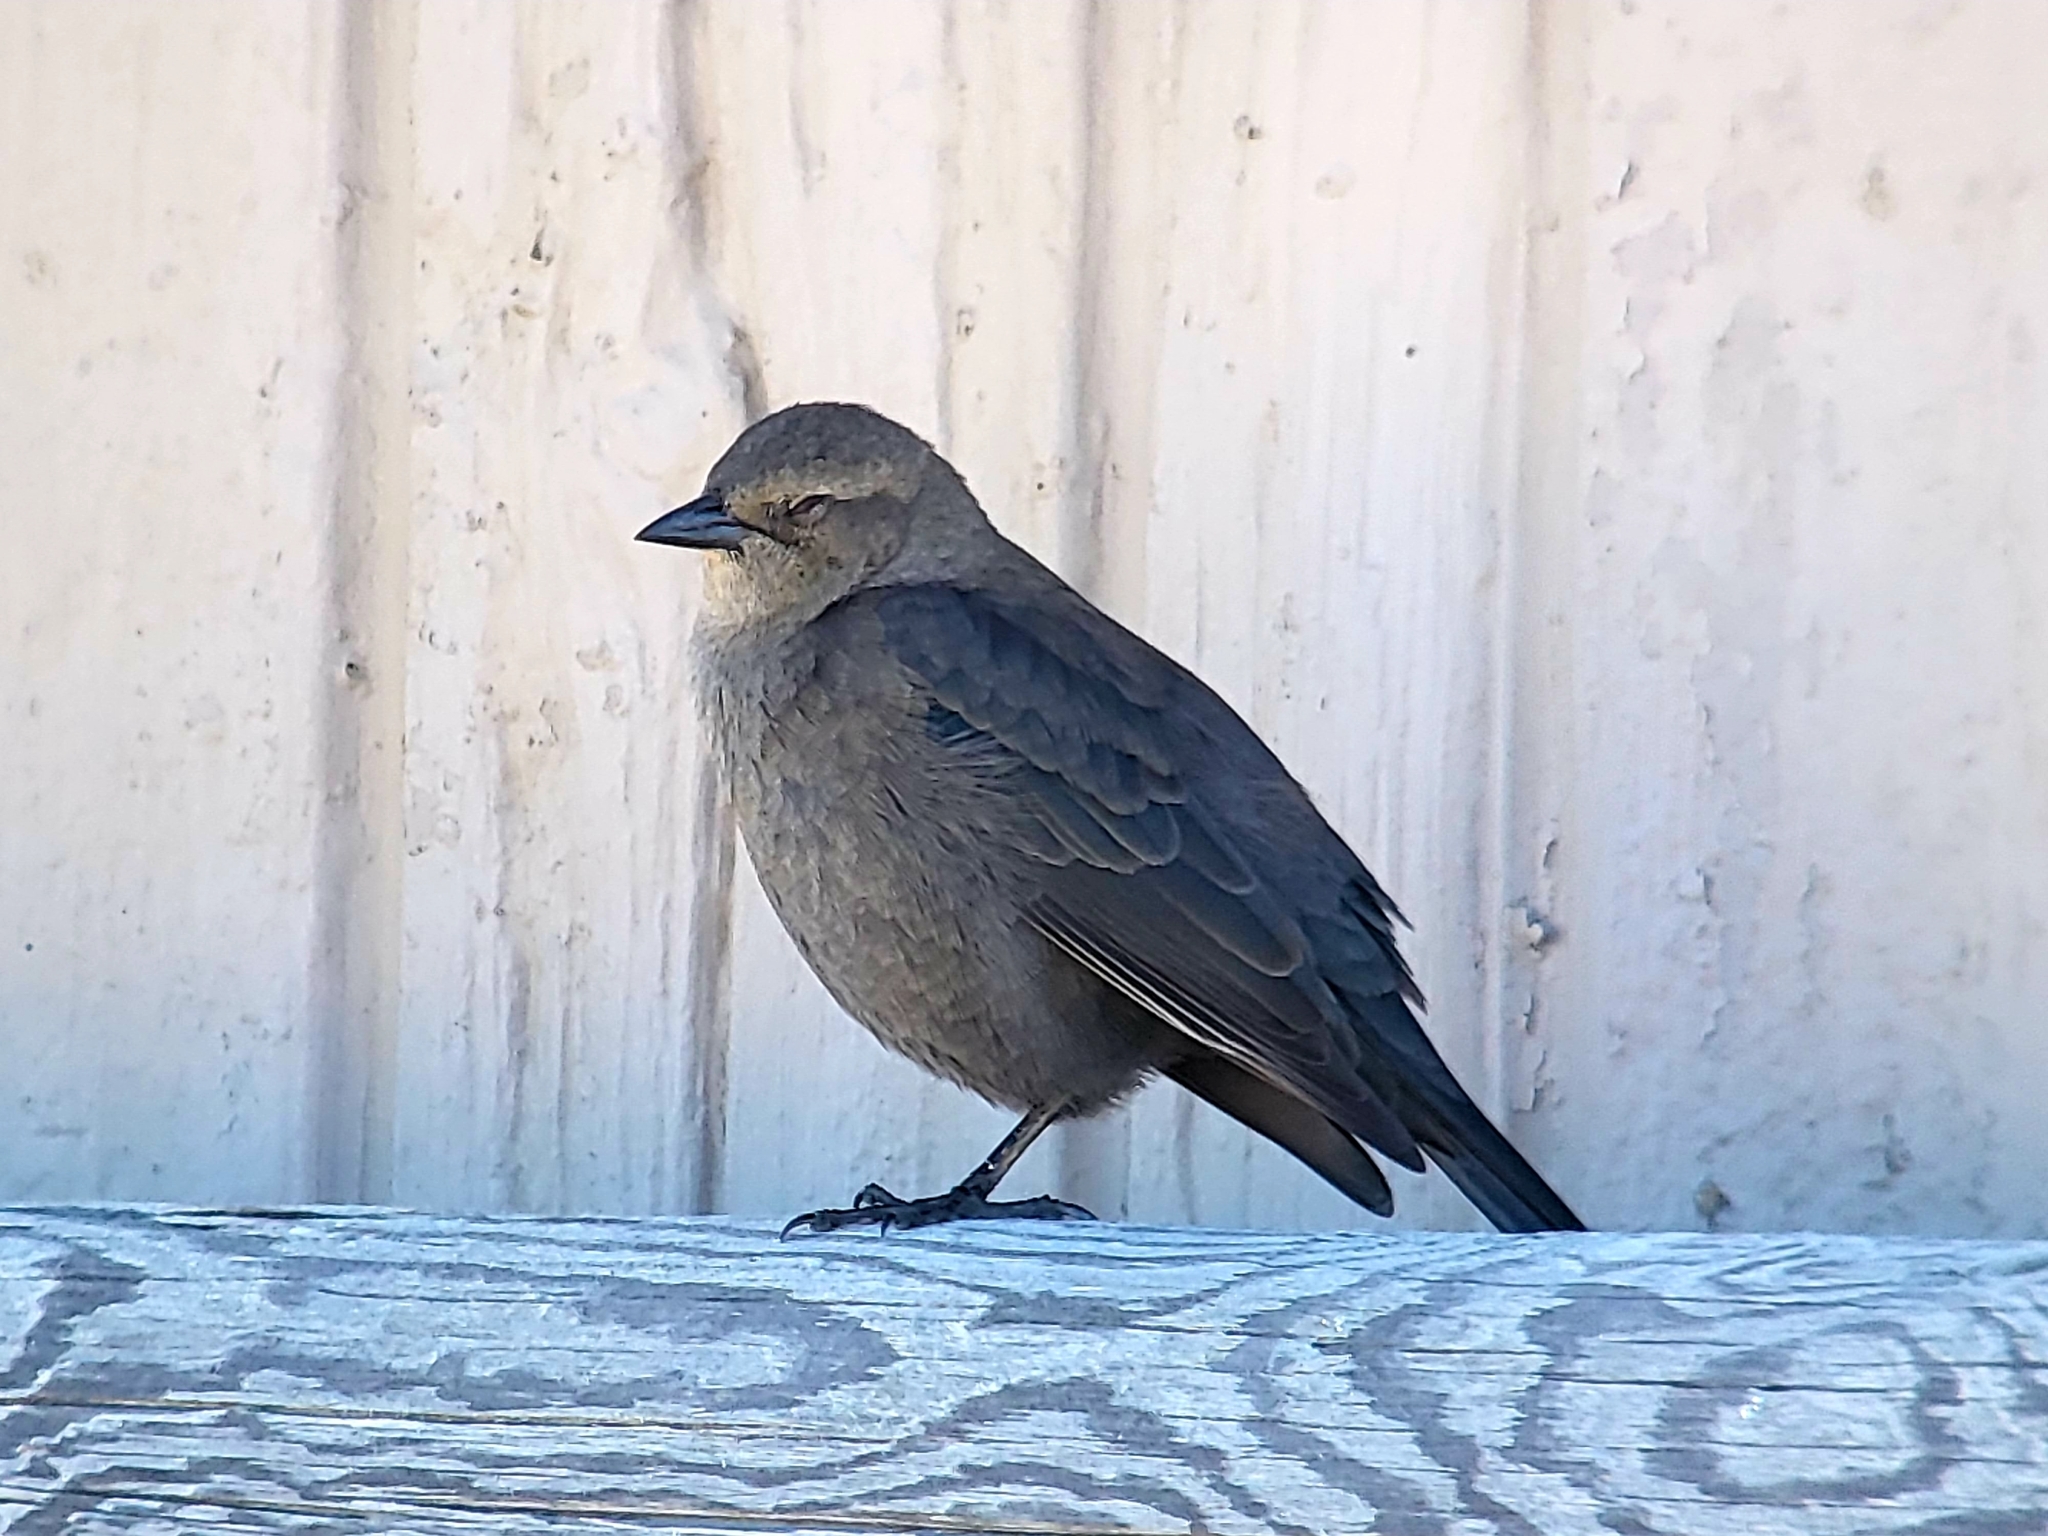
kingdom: Animalia
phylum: Chordata
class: Aves
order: Passeriformes
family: Icteridae
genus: Euphagus
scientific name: Euphagus cyanocephalus
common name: Brewer's blackbird
